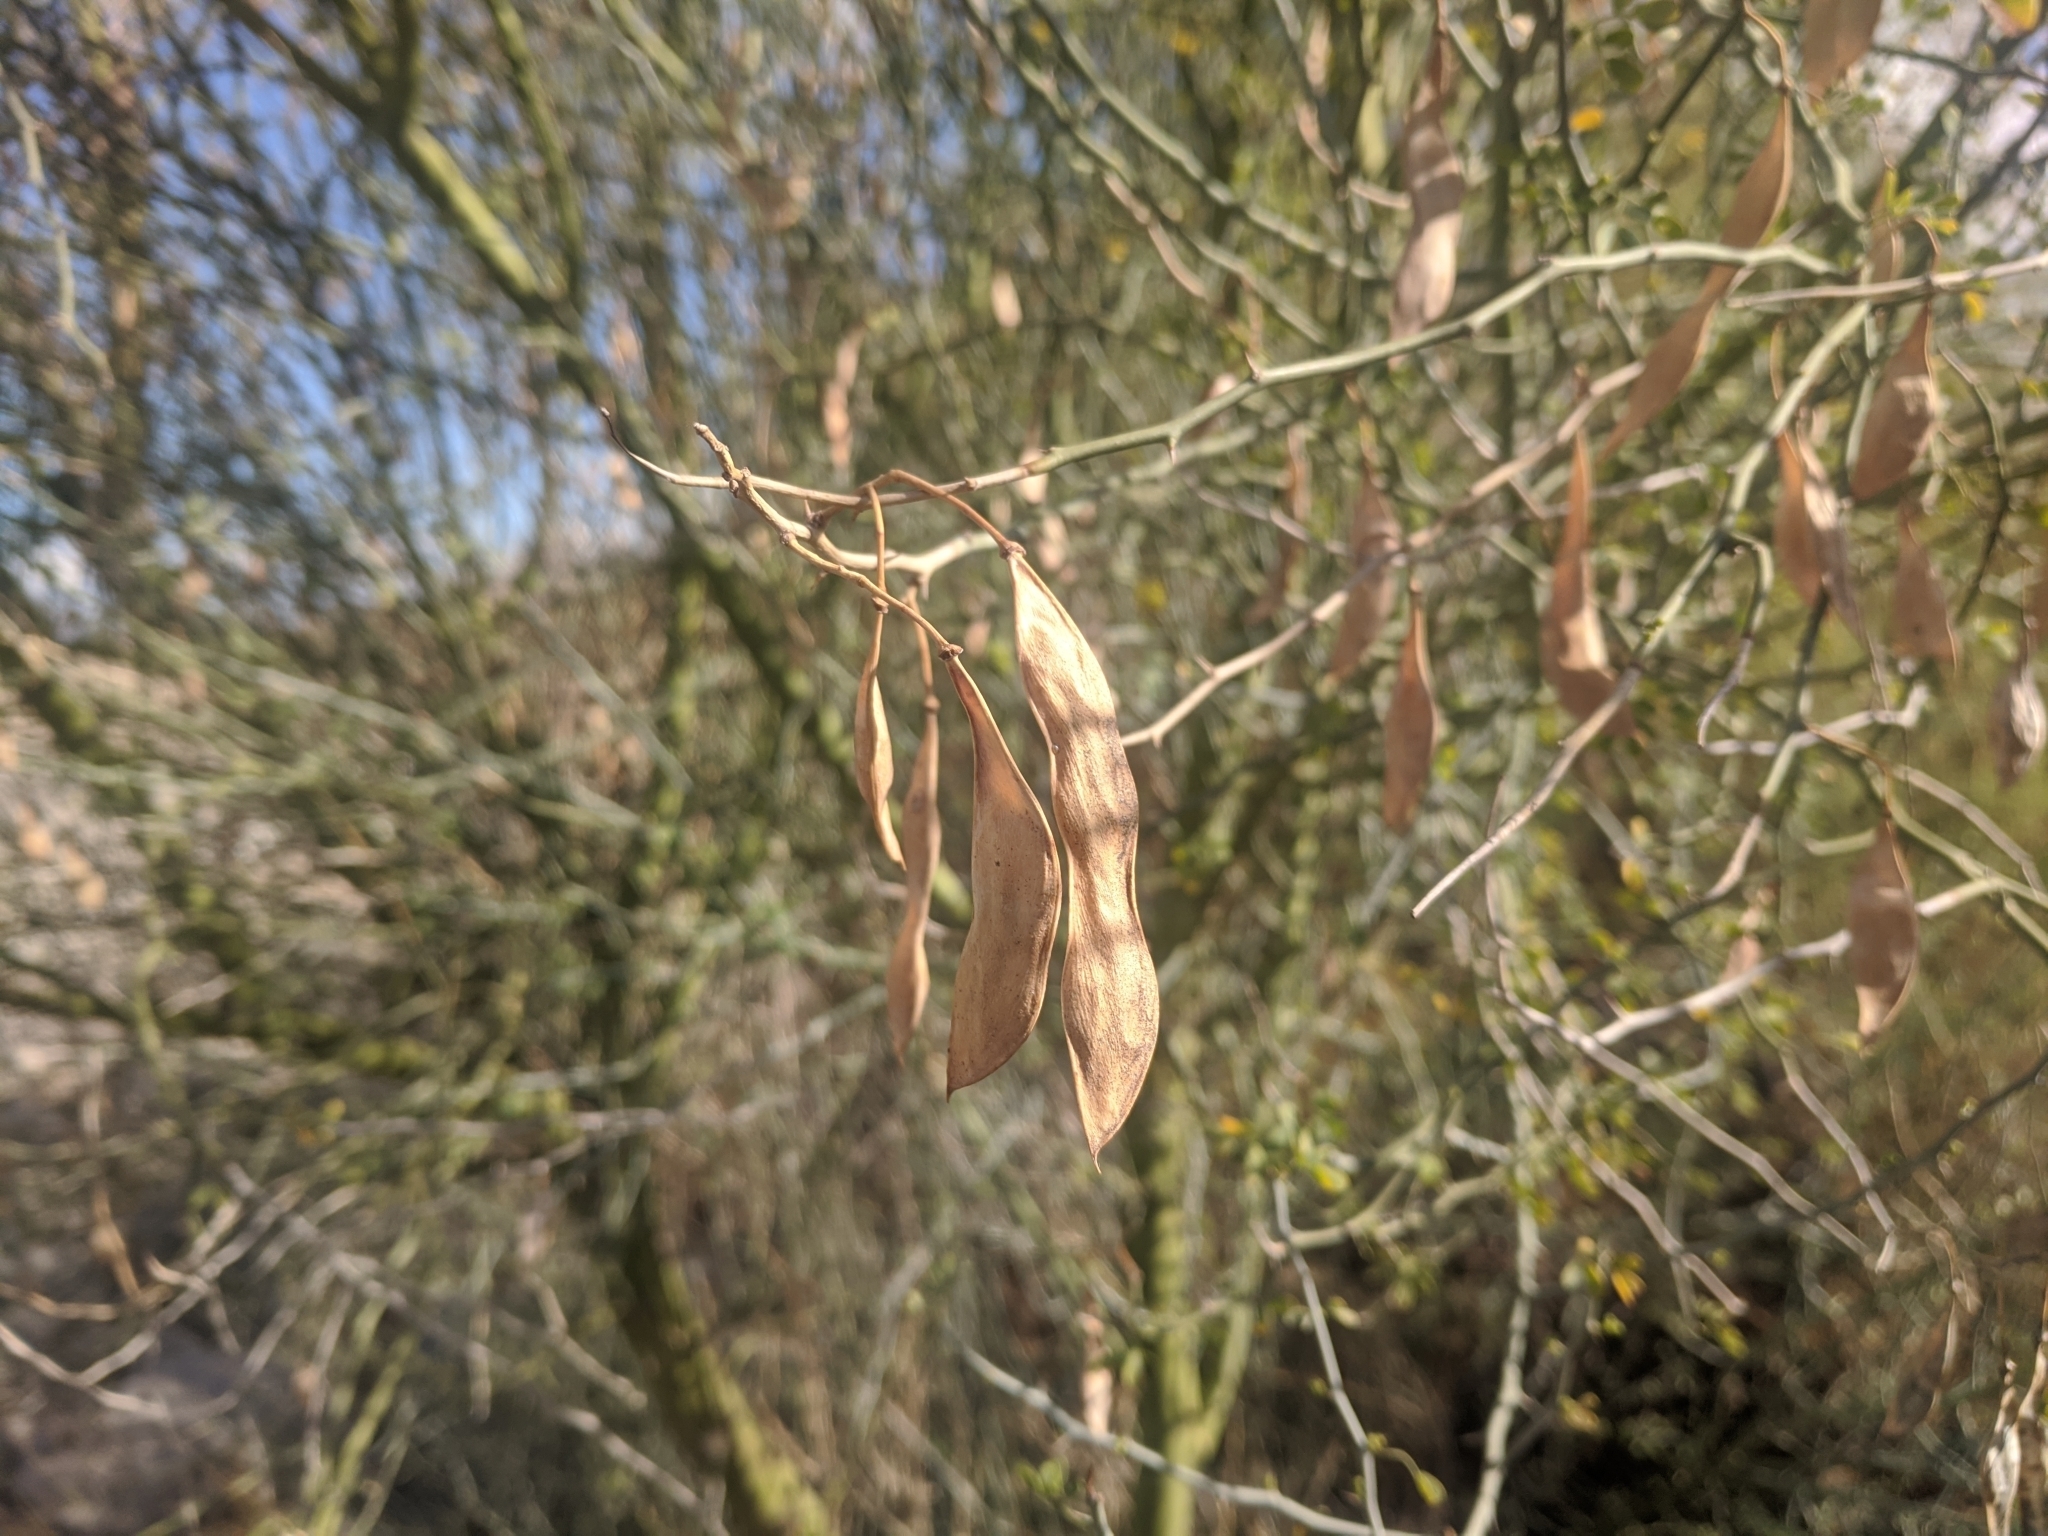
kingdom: Plantae
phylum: Tracheophyta
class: Magnoliopsida
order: Fabales
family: Fabaceae
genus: Parkinsonia
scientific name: Parkinsonia florida
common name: Blue paloverde
